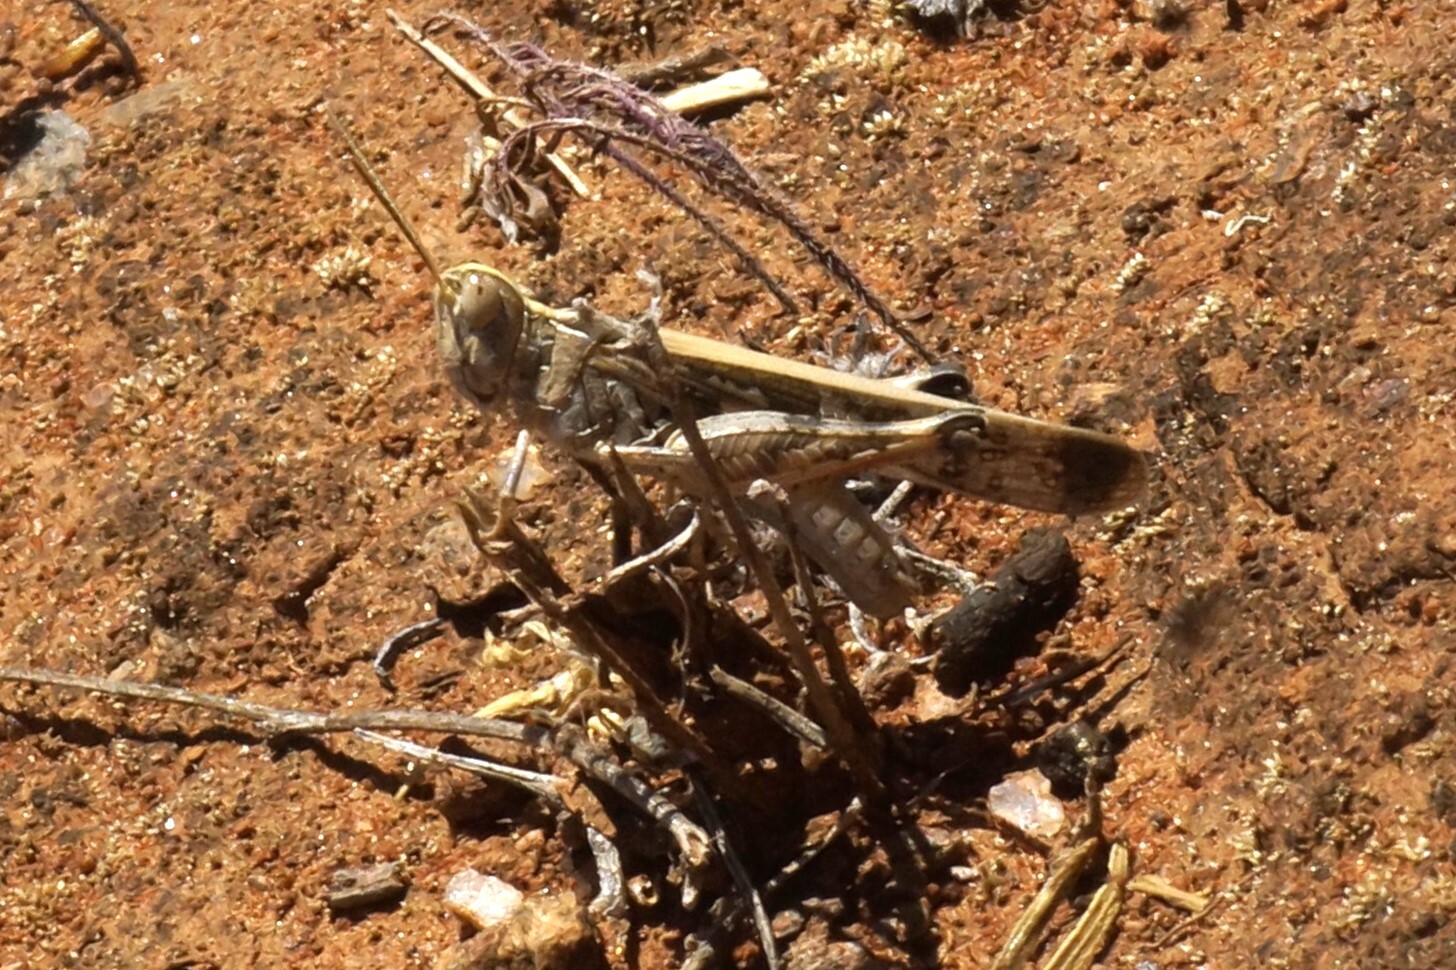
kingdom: Animalia
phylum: Arthropoda
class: Insecta
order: Orthoptera
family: Acrididae
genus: Chortoicetes
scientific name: Chortoicetes terminifera
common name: Australian plague locust
